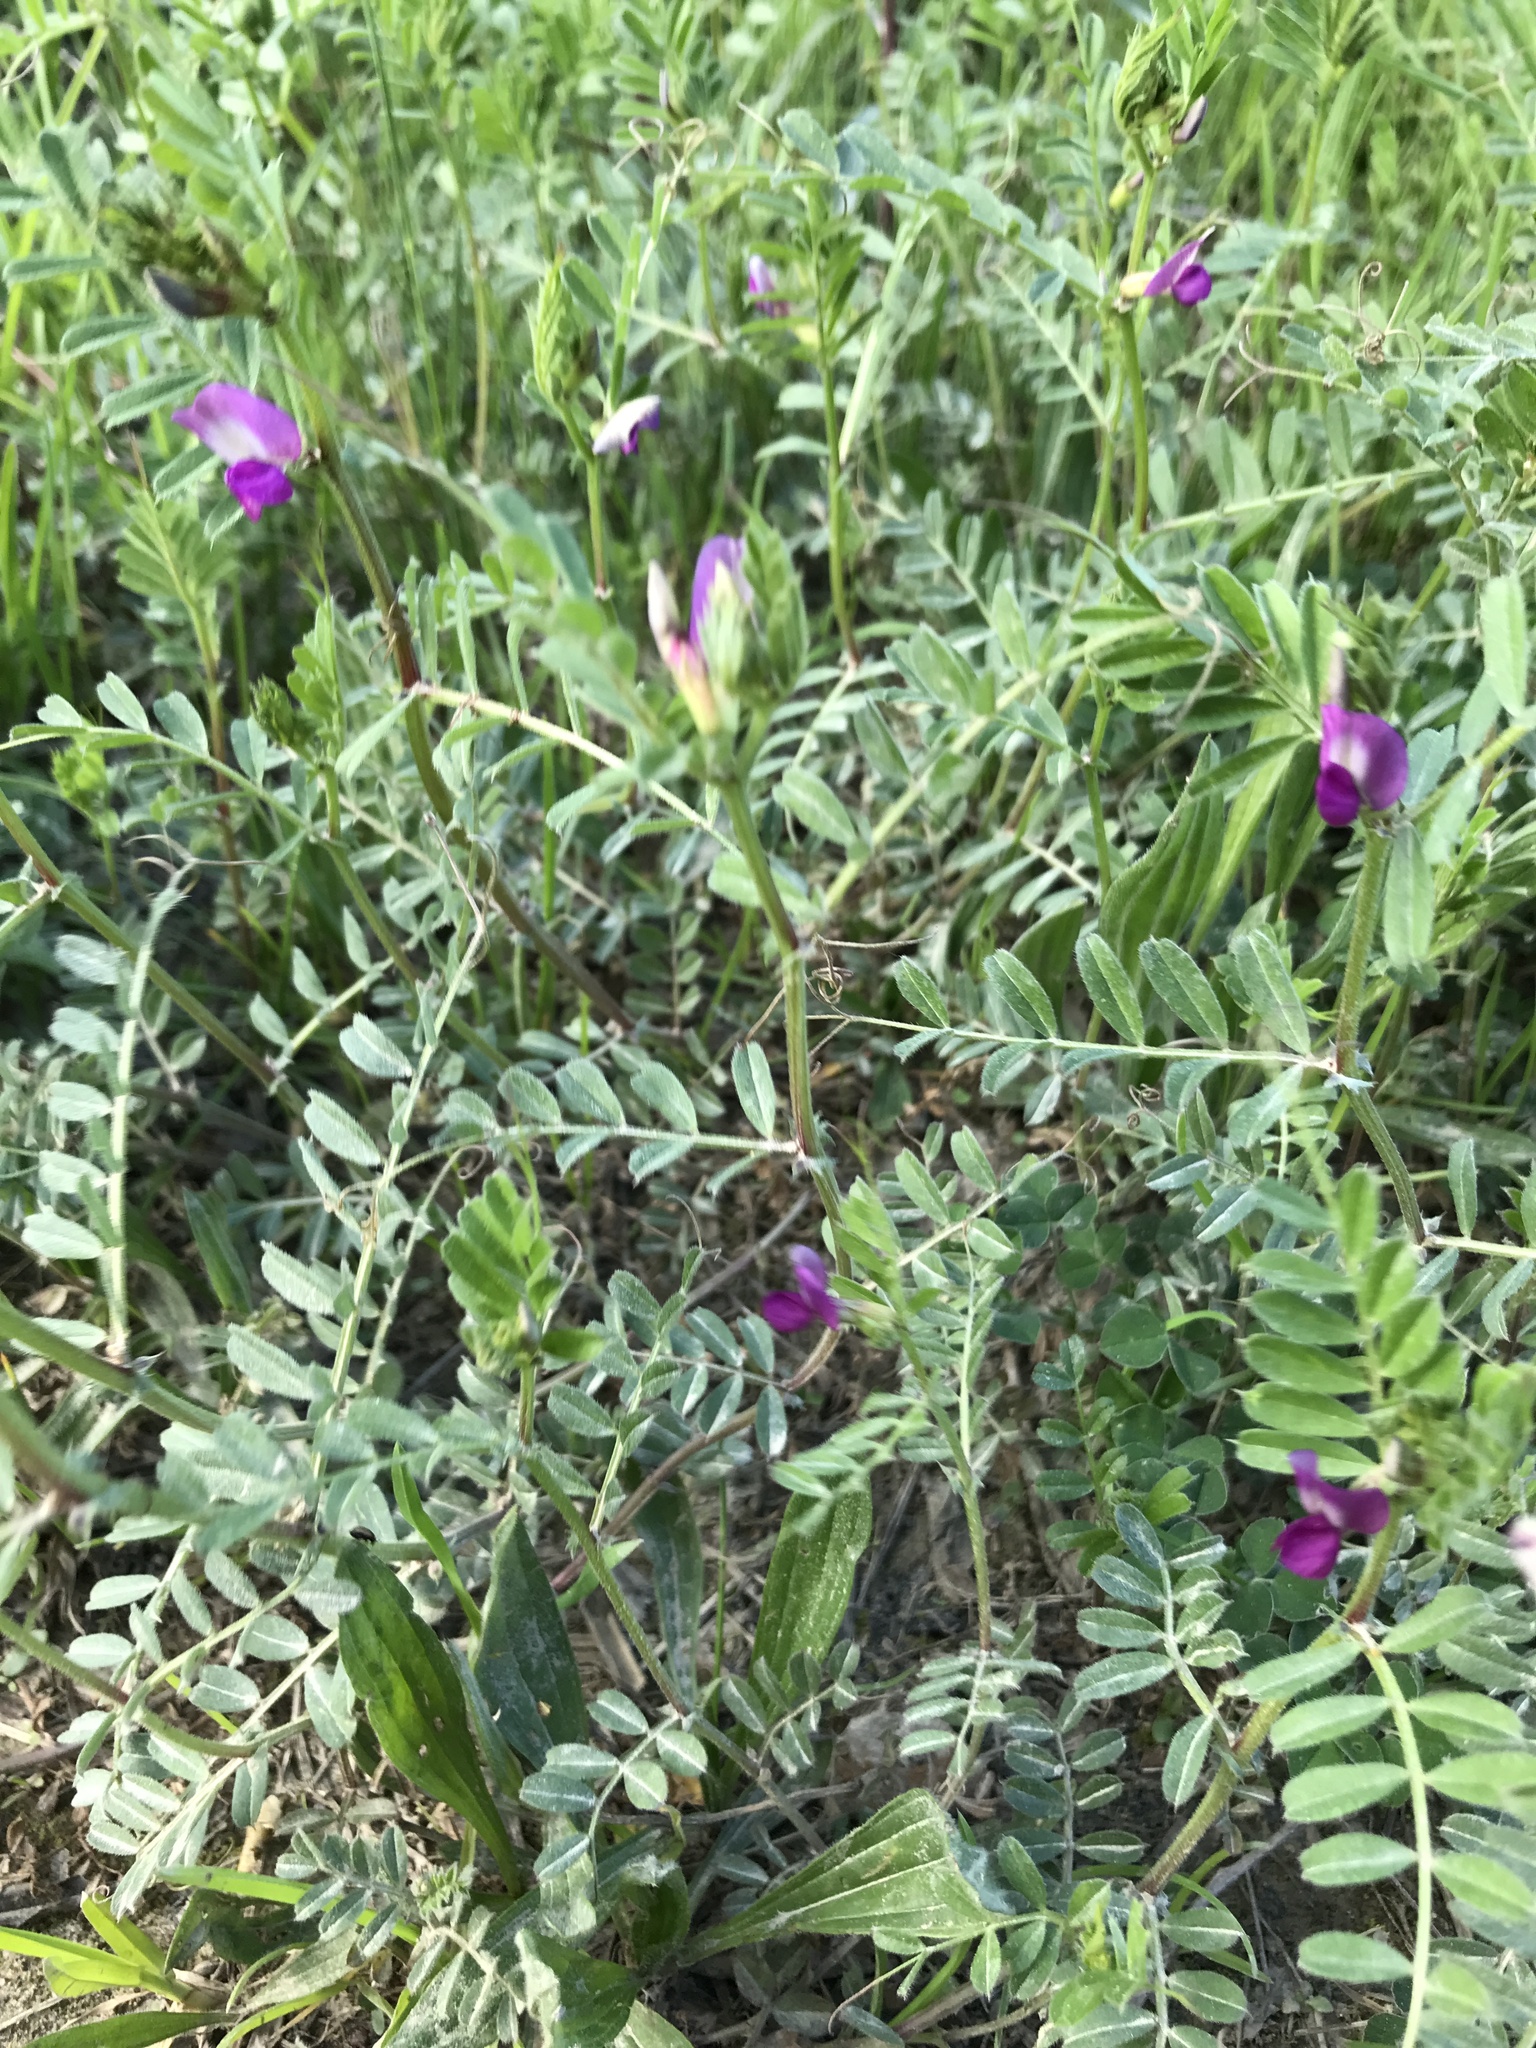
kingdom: Plantae
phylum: Tracheophyta
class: Magnoliopsida
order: Fabales
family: Fabaceae
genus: Vicia
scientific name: Vicia sativa
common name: Garden vetch
